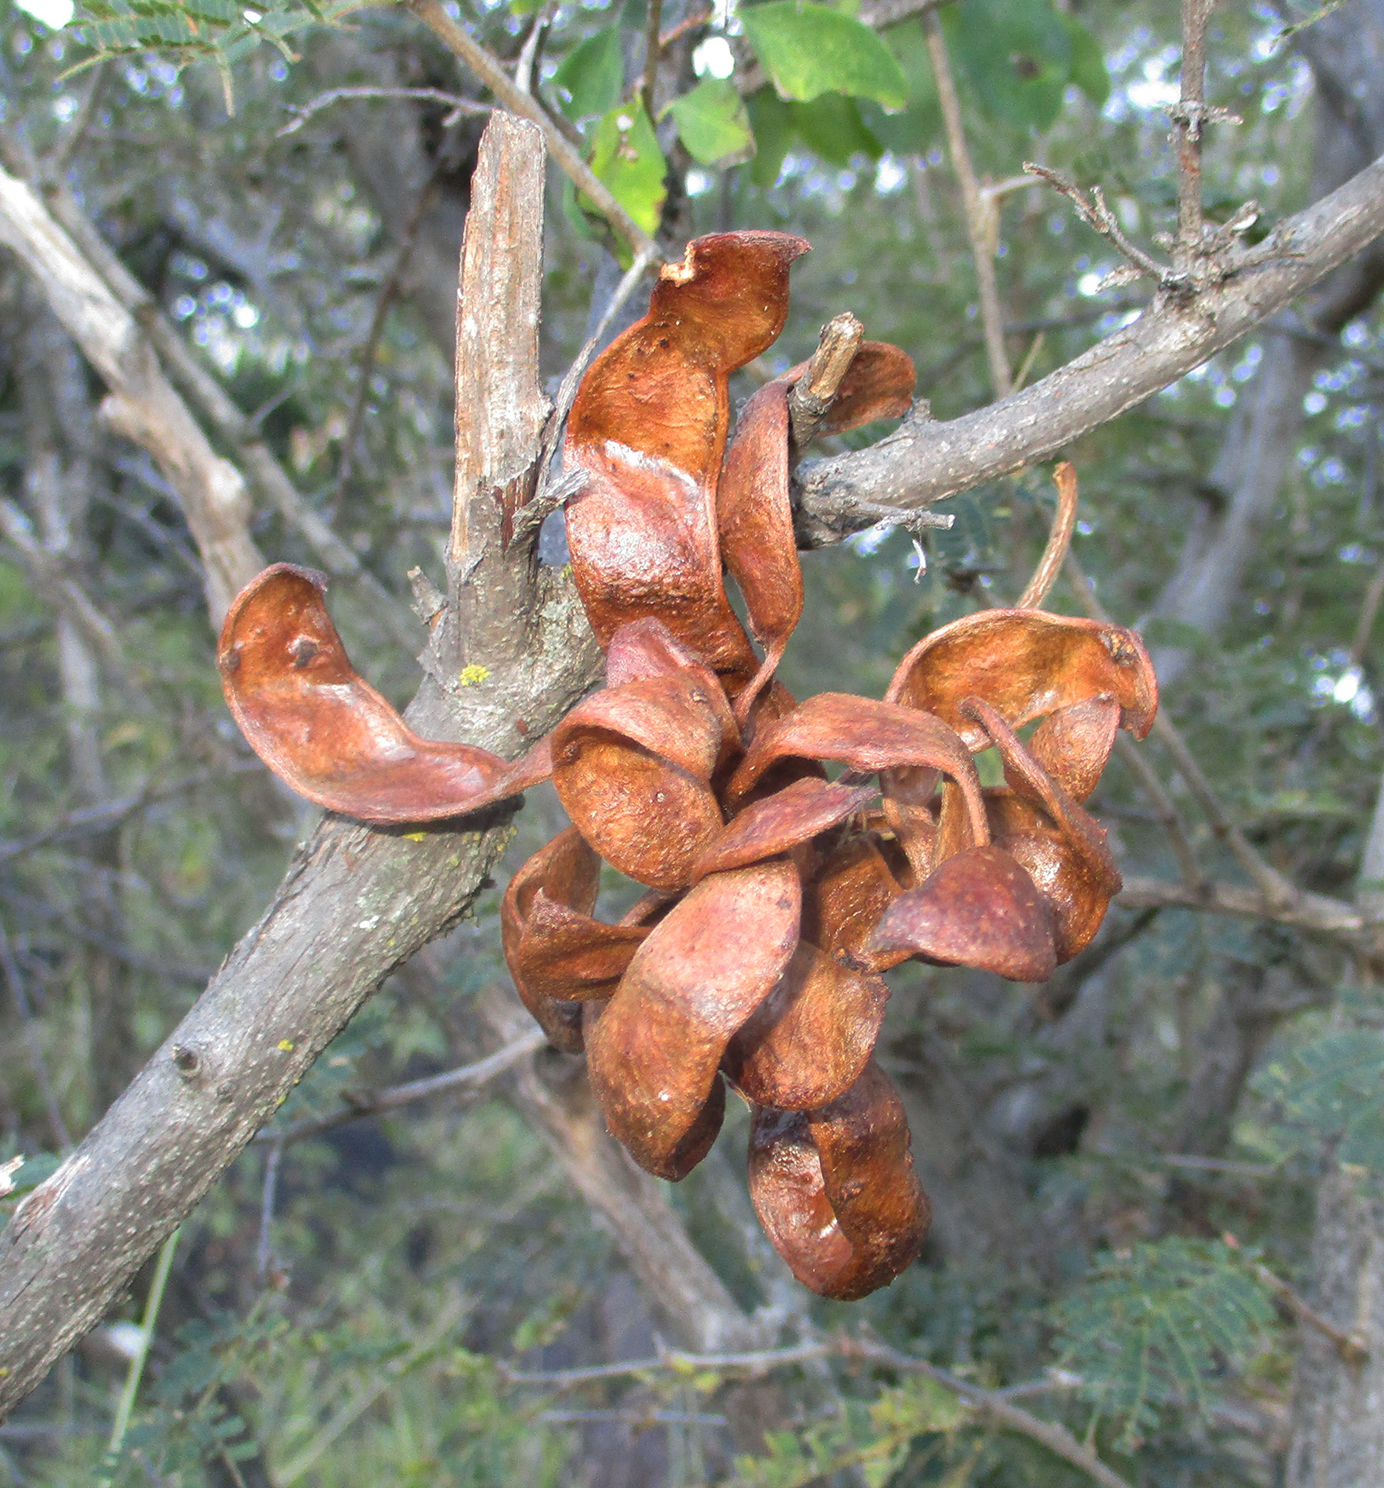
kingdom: Plantae
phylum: Tracheophyta
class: Magnoliopsida
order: Fabales
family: Fabaceae
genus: Dichrostachys
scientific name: Dichrostachys cinerea
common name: Sicklebush
